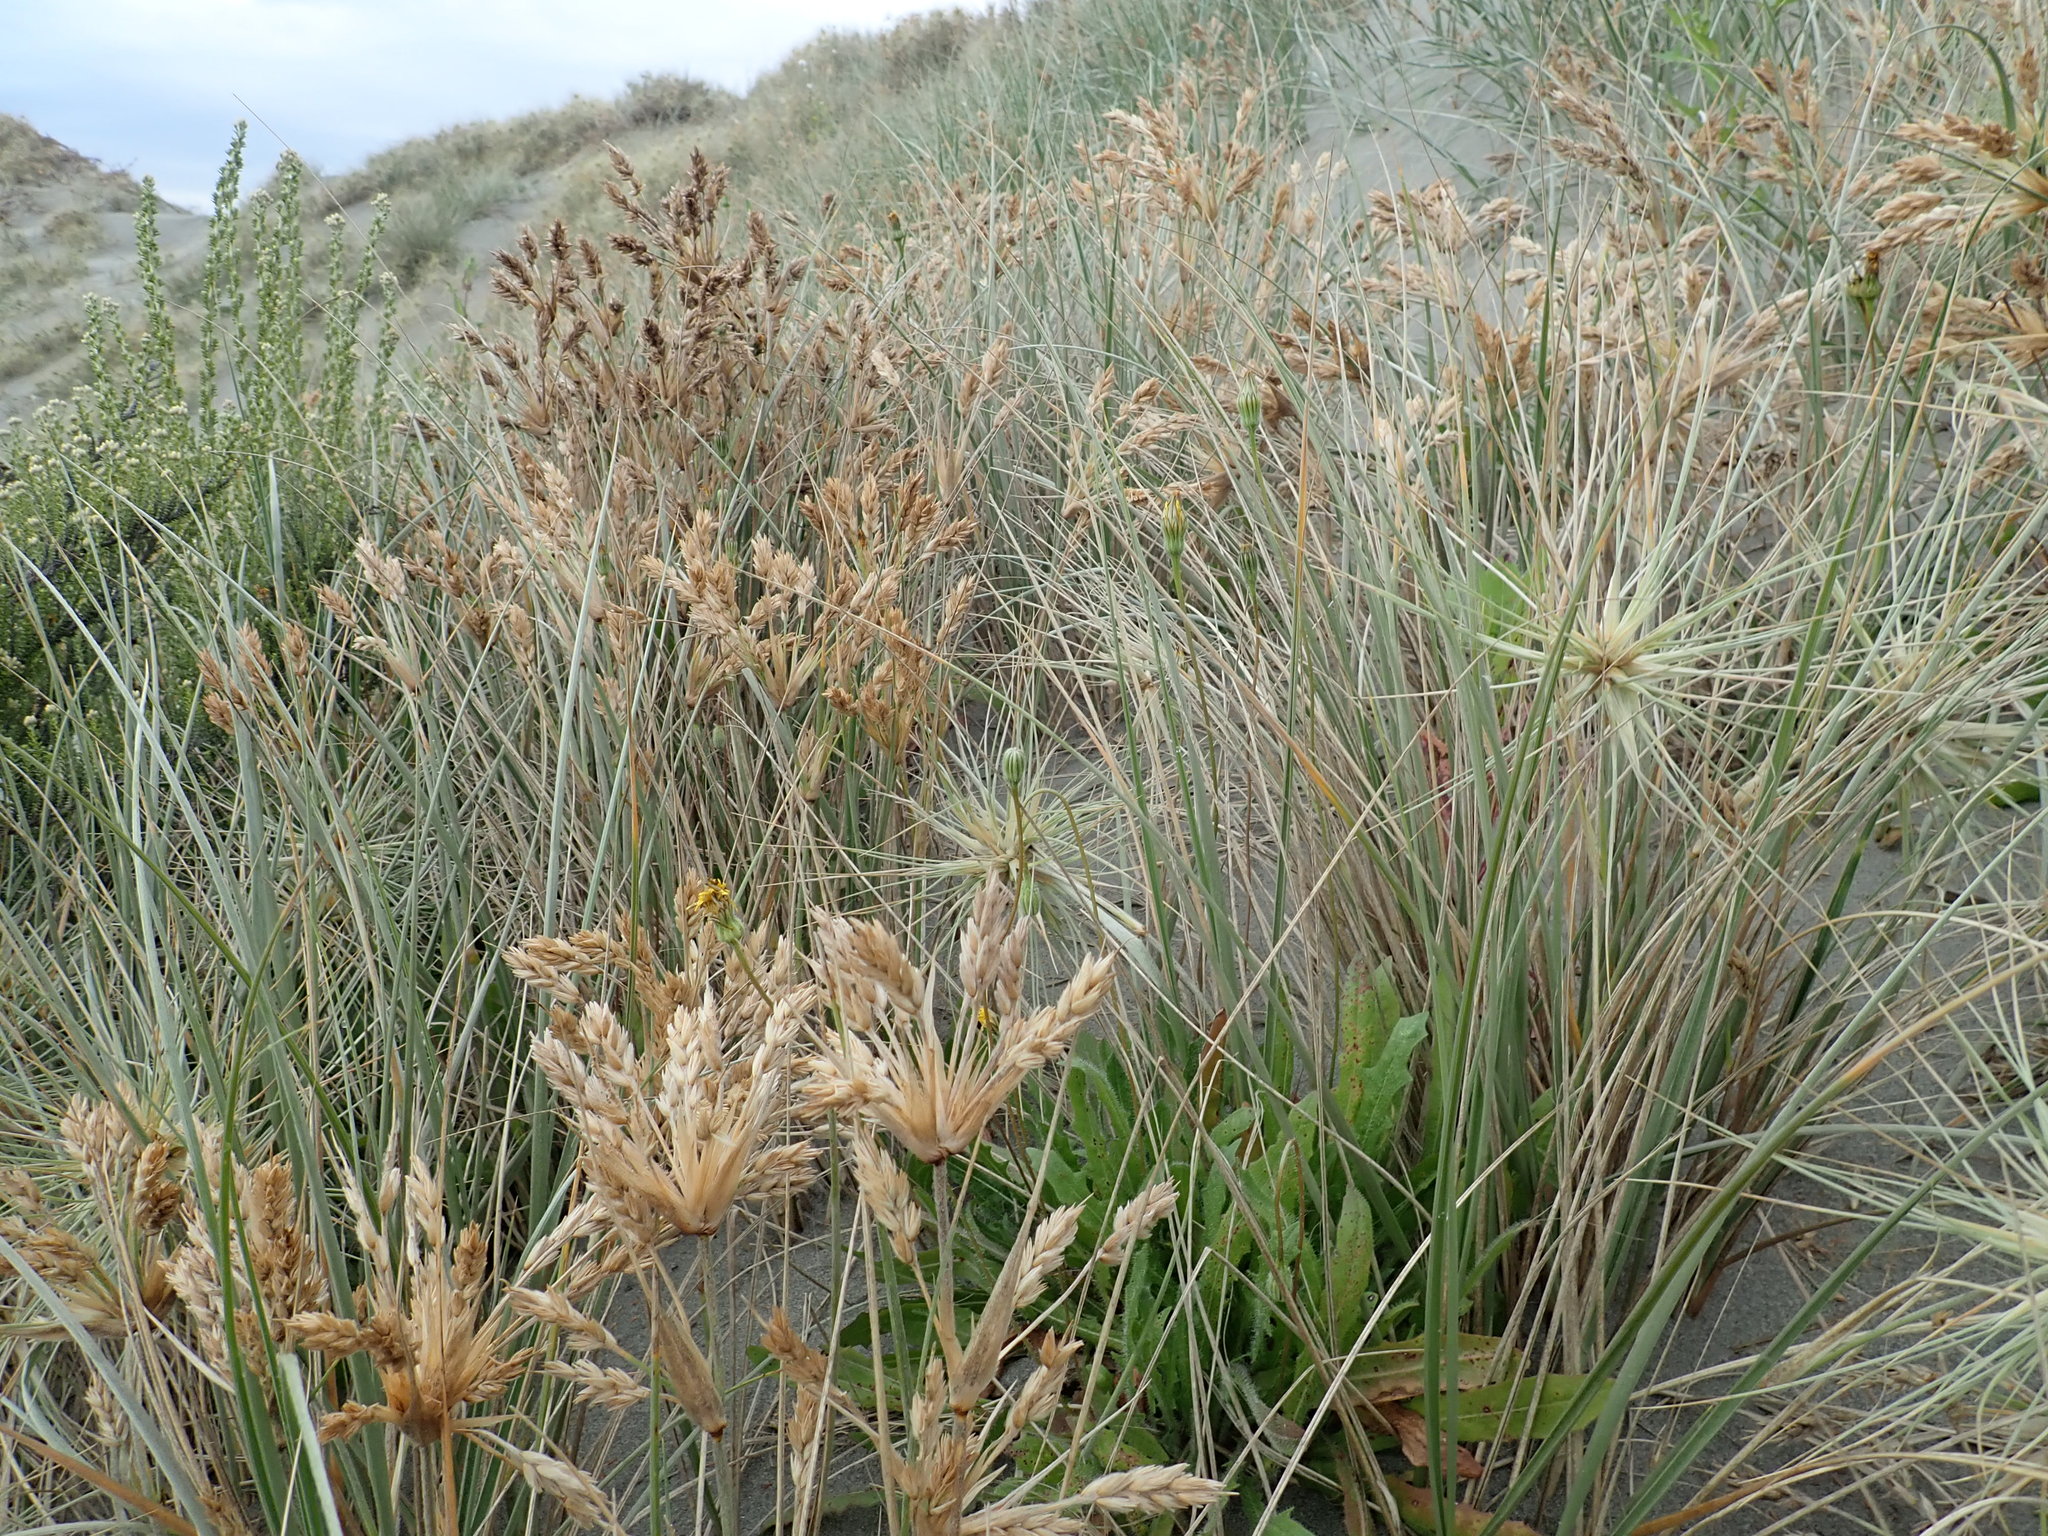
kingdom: Plantae
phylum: Tracheophyta
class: Liliopsida
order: Poales
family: Poaceae
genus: Spinifex
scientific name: Spinifex sericeus
